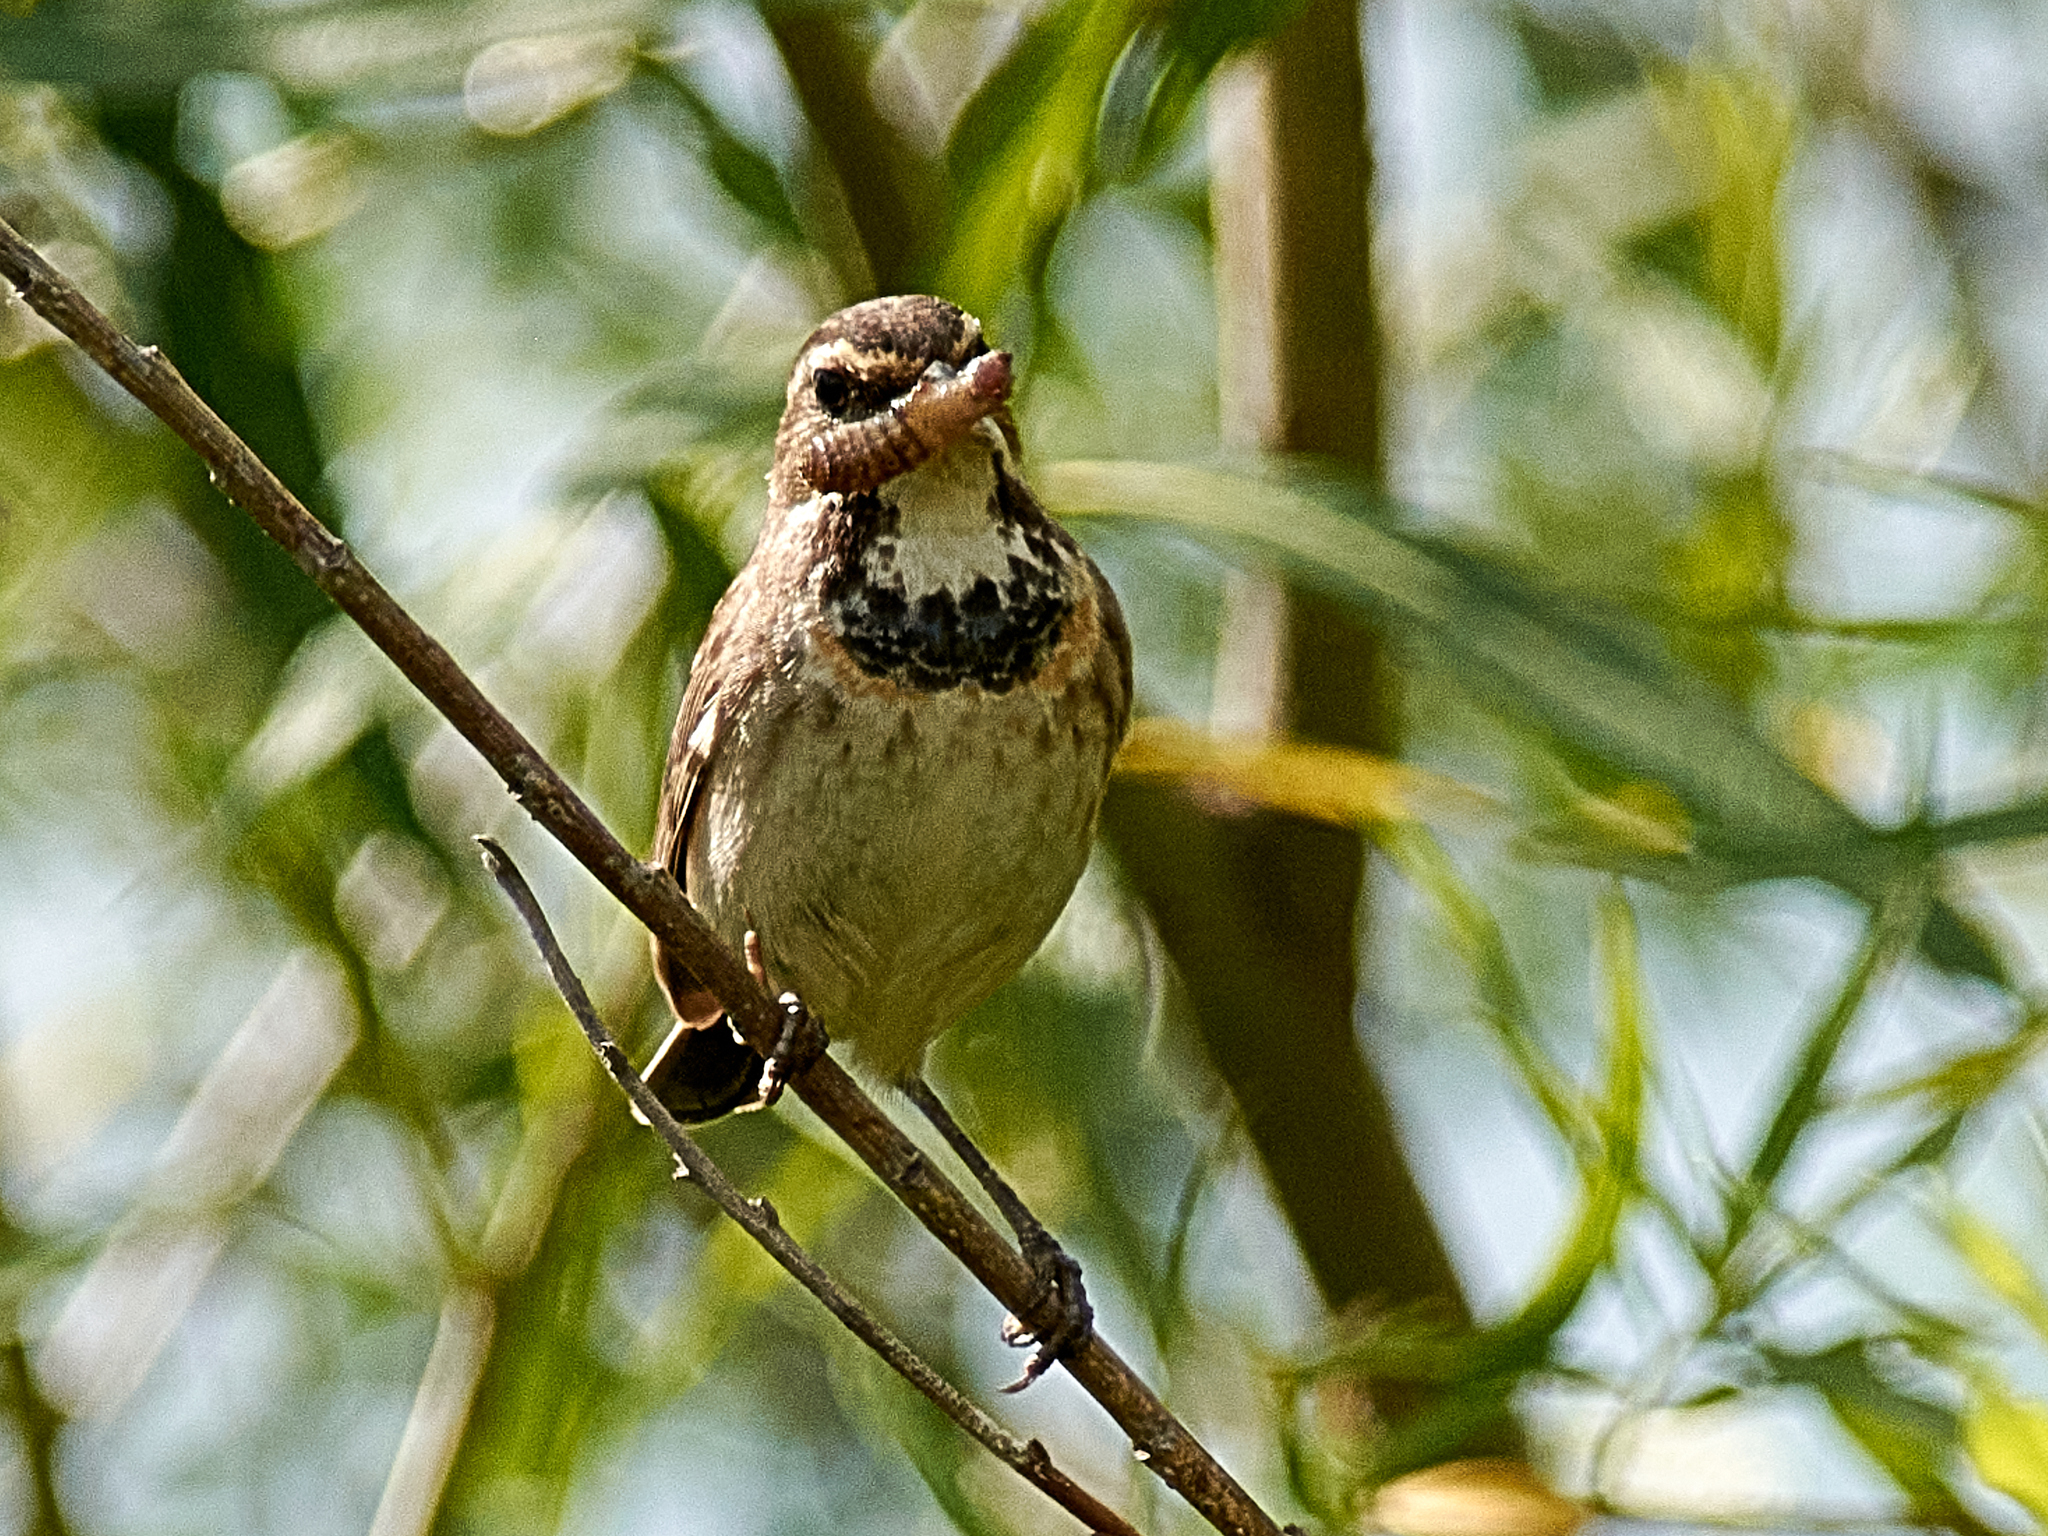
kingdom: Animalia
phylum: Chordata
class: Aves
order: Passeriformes
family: Muscicapidae
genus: Luscinia
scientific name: Luscinia svecica
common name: Bluethroat
